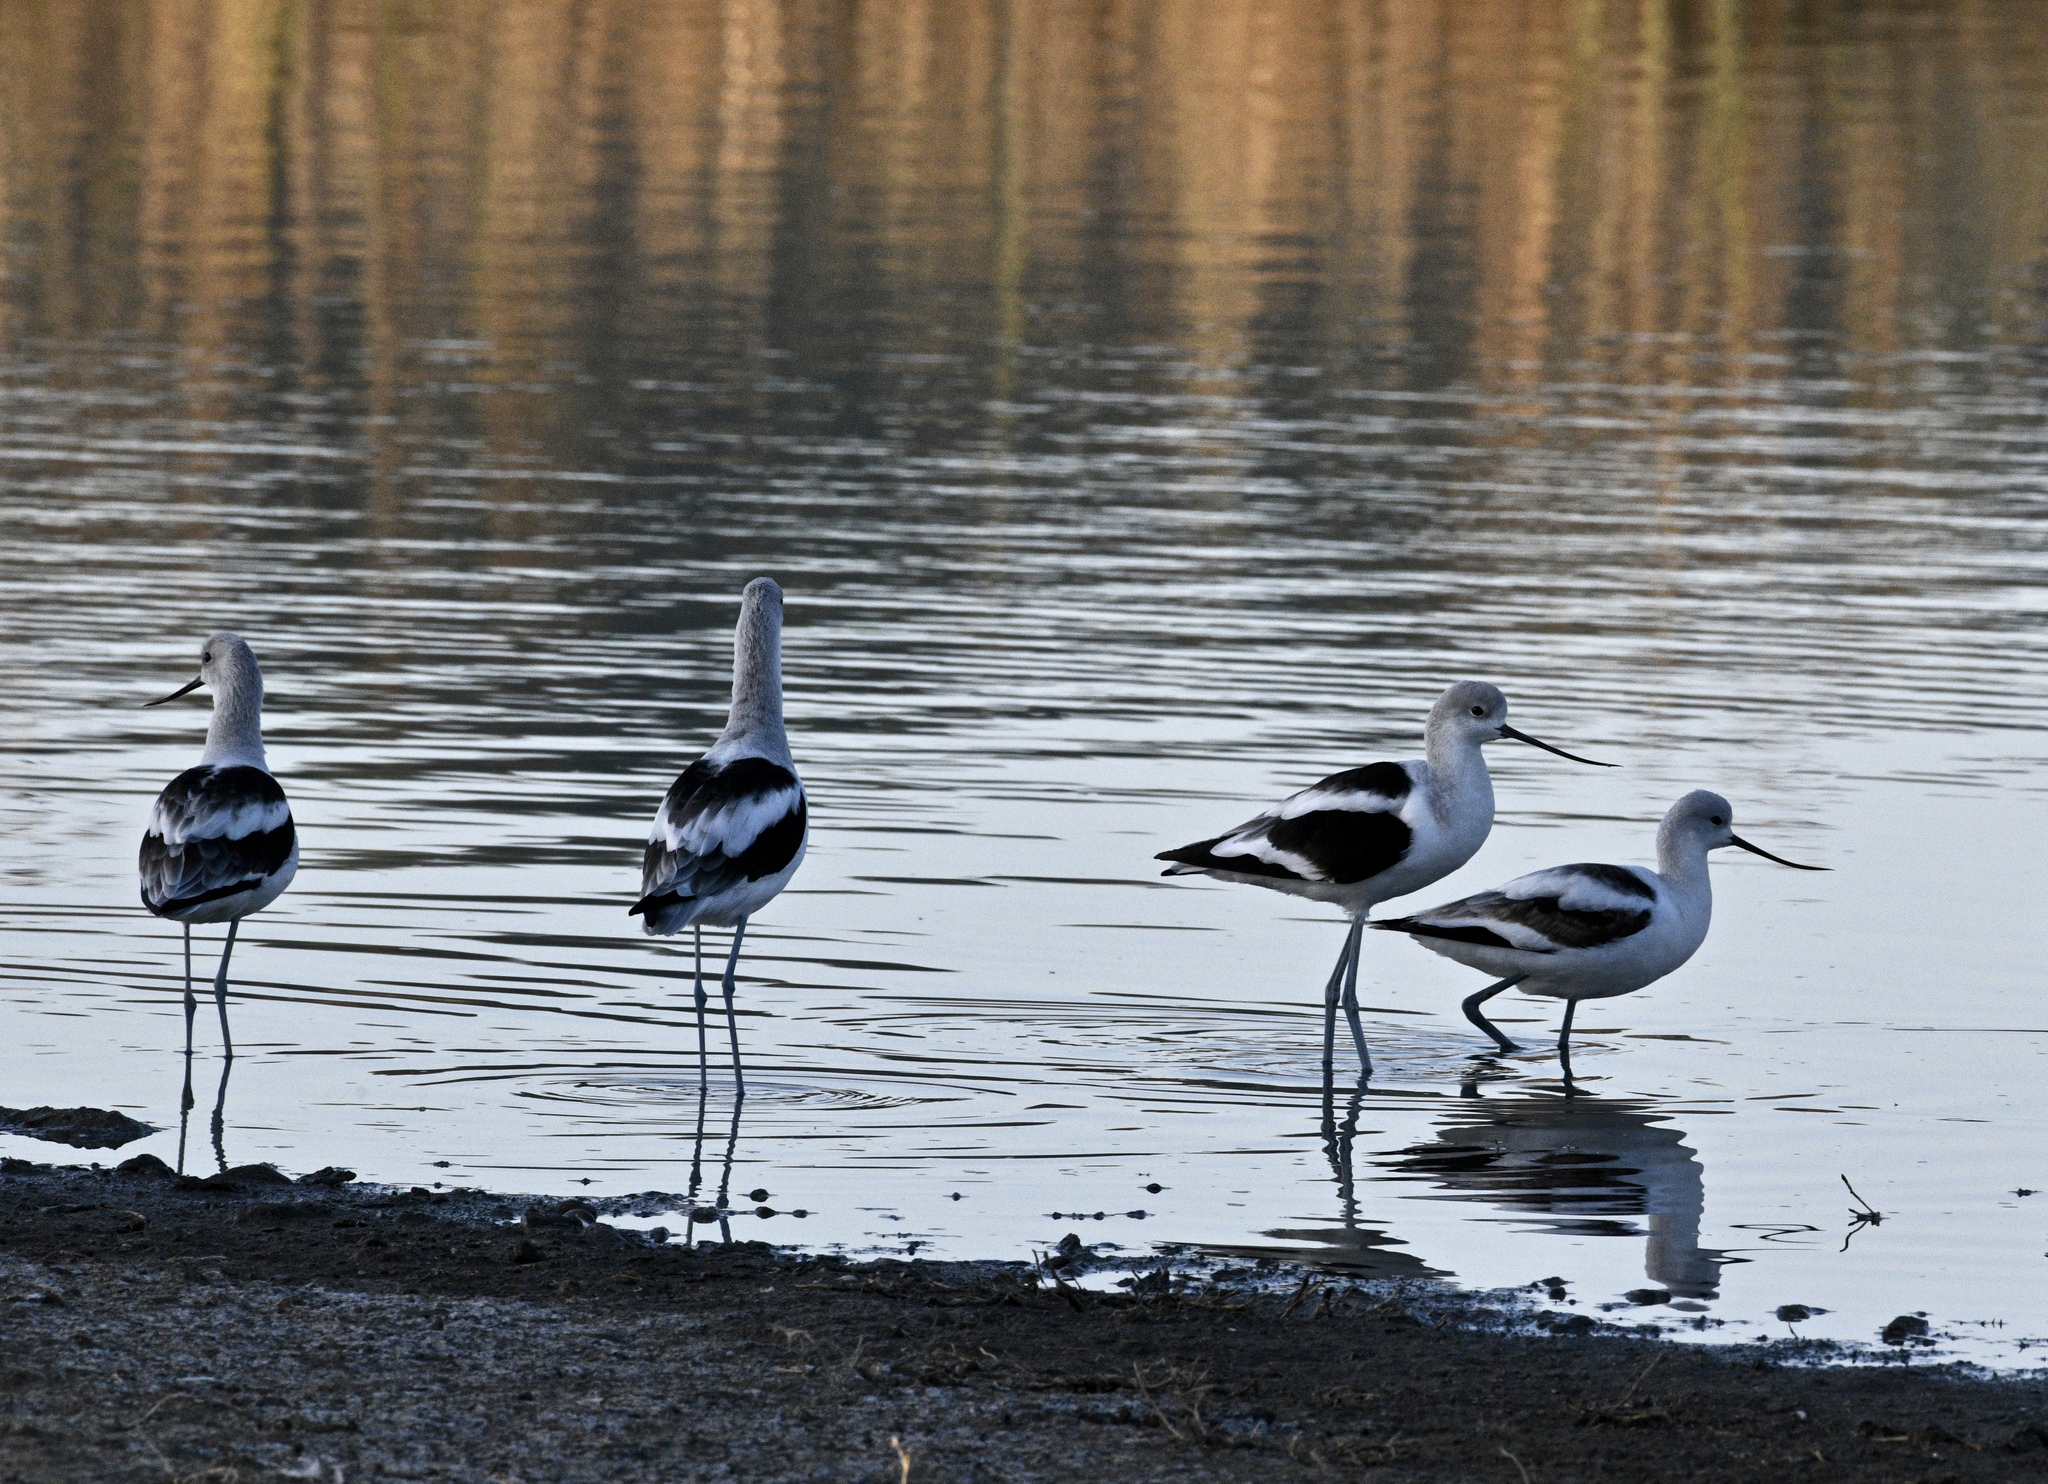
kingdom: Animalia
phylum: Chordata
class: Aves
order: Charadriiformes
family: Recurvirostridae
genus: Recurvirostra
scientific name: Recurvirostra americana
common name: American avocet
